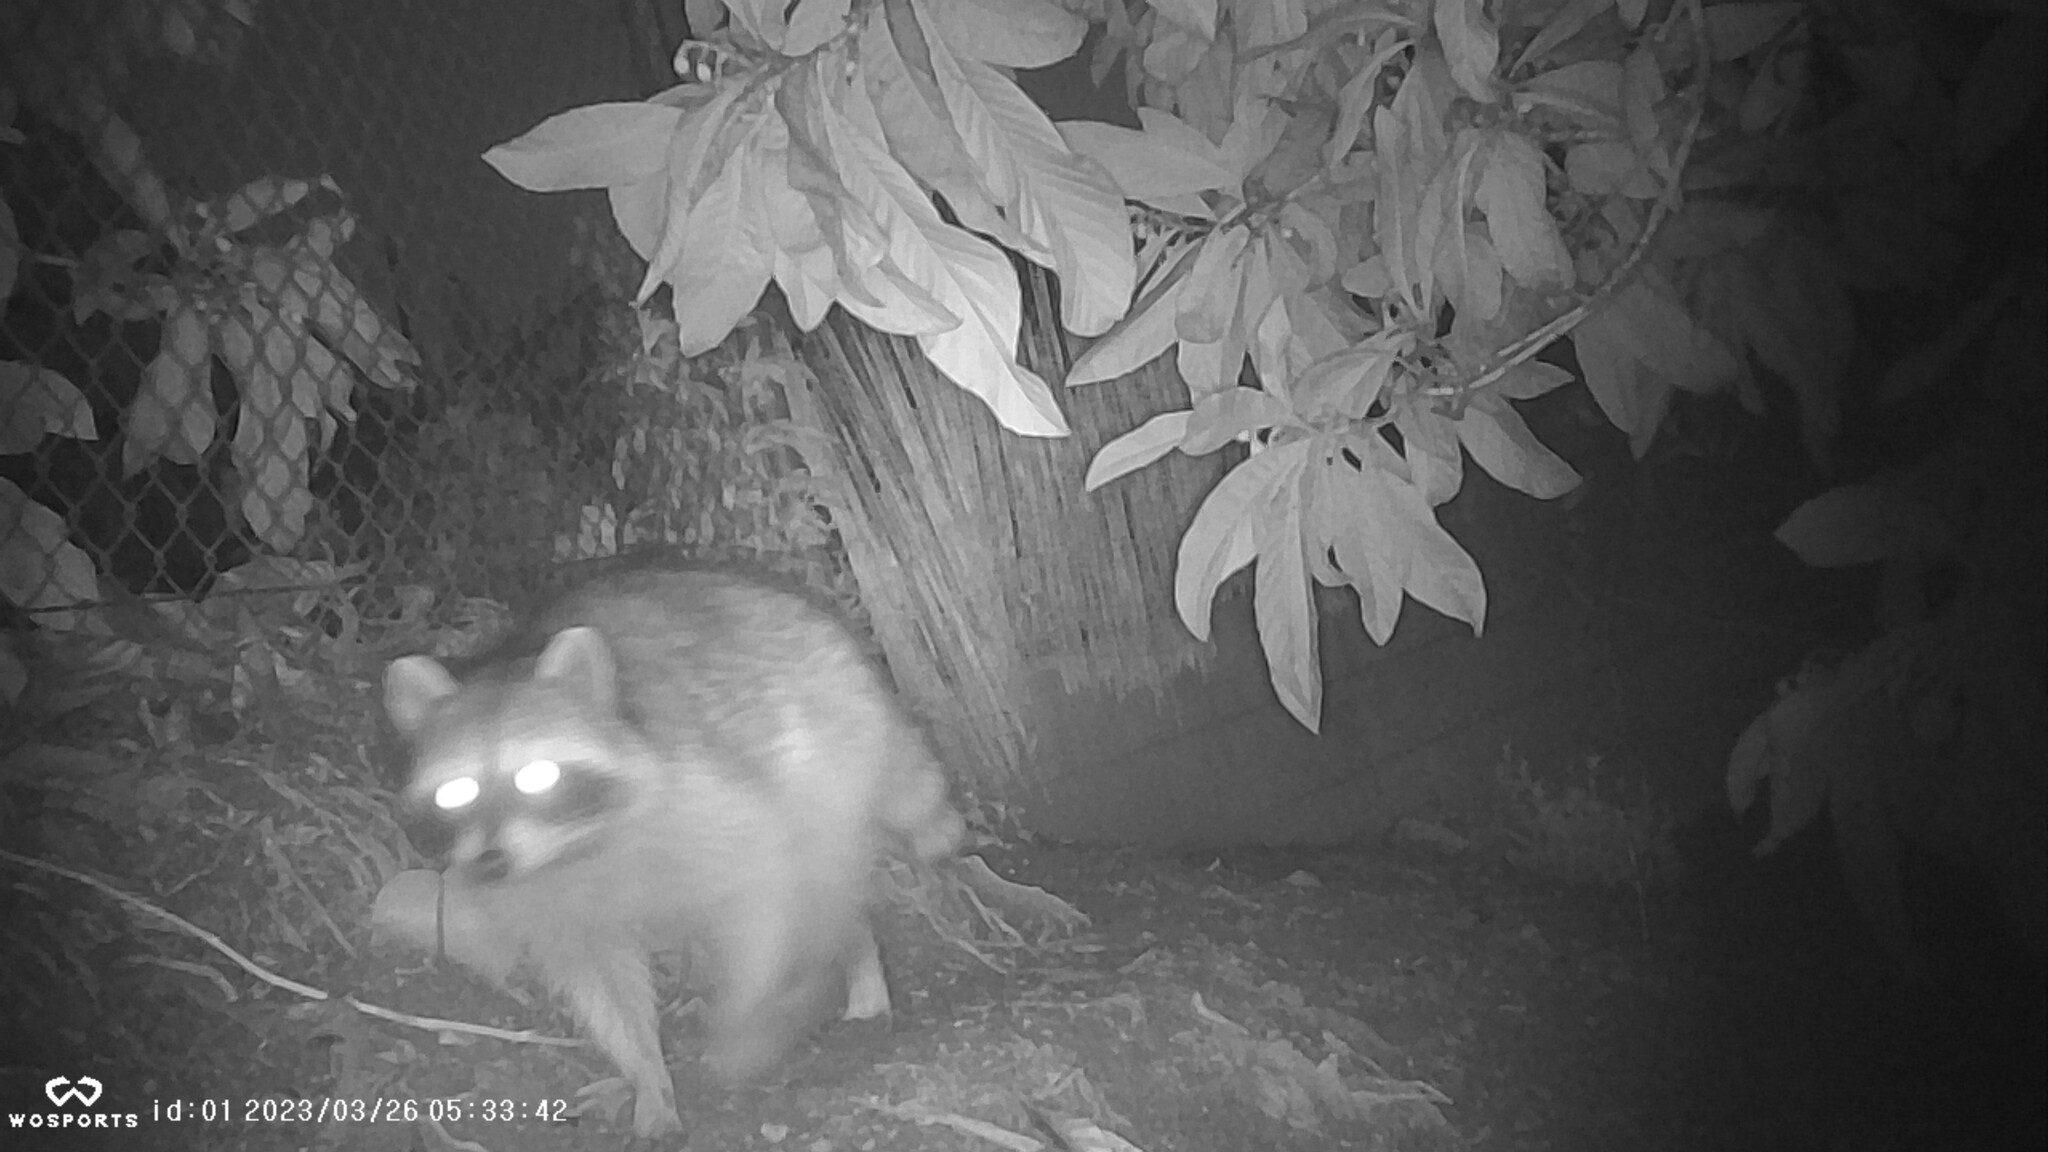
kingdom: Animalia
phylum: Chordata
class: Mammalia
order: Carnivora
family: Procyonidae
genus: Procyon
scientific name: Procyon lotor
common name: Raccoon
